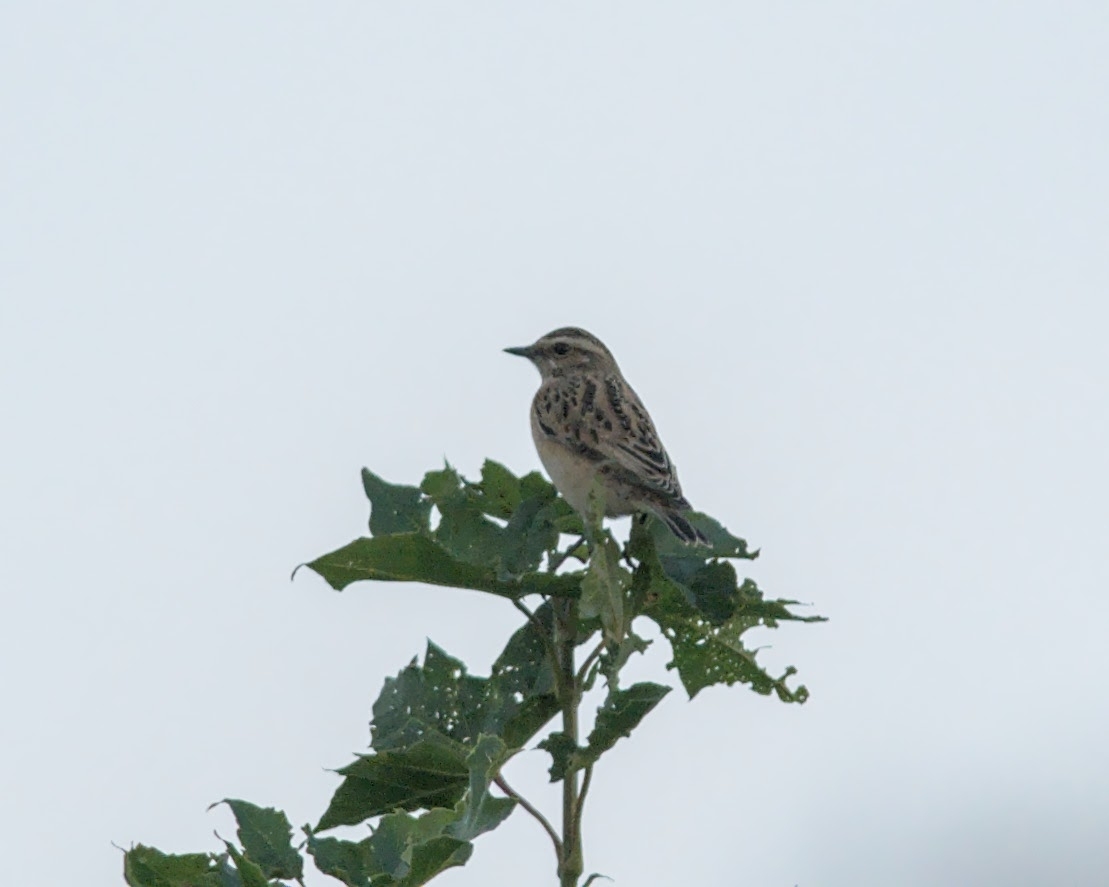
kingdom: Animalia
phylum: Chordata
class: Aves
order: Passeriformes
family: Muscicapidae
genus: Saxicola
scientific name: Saxicola rubetra
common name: Whinchat
